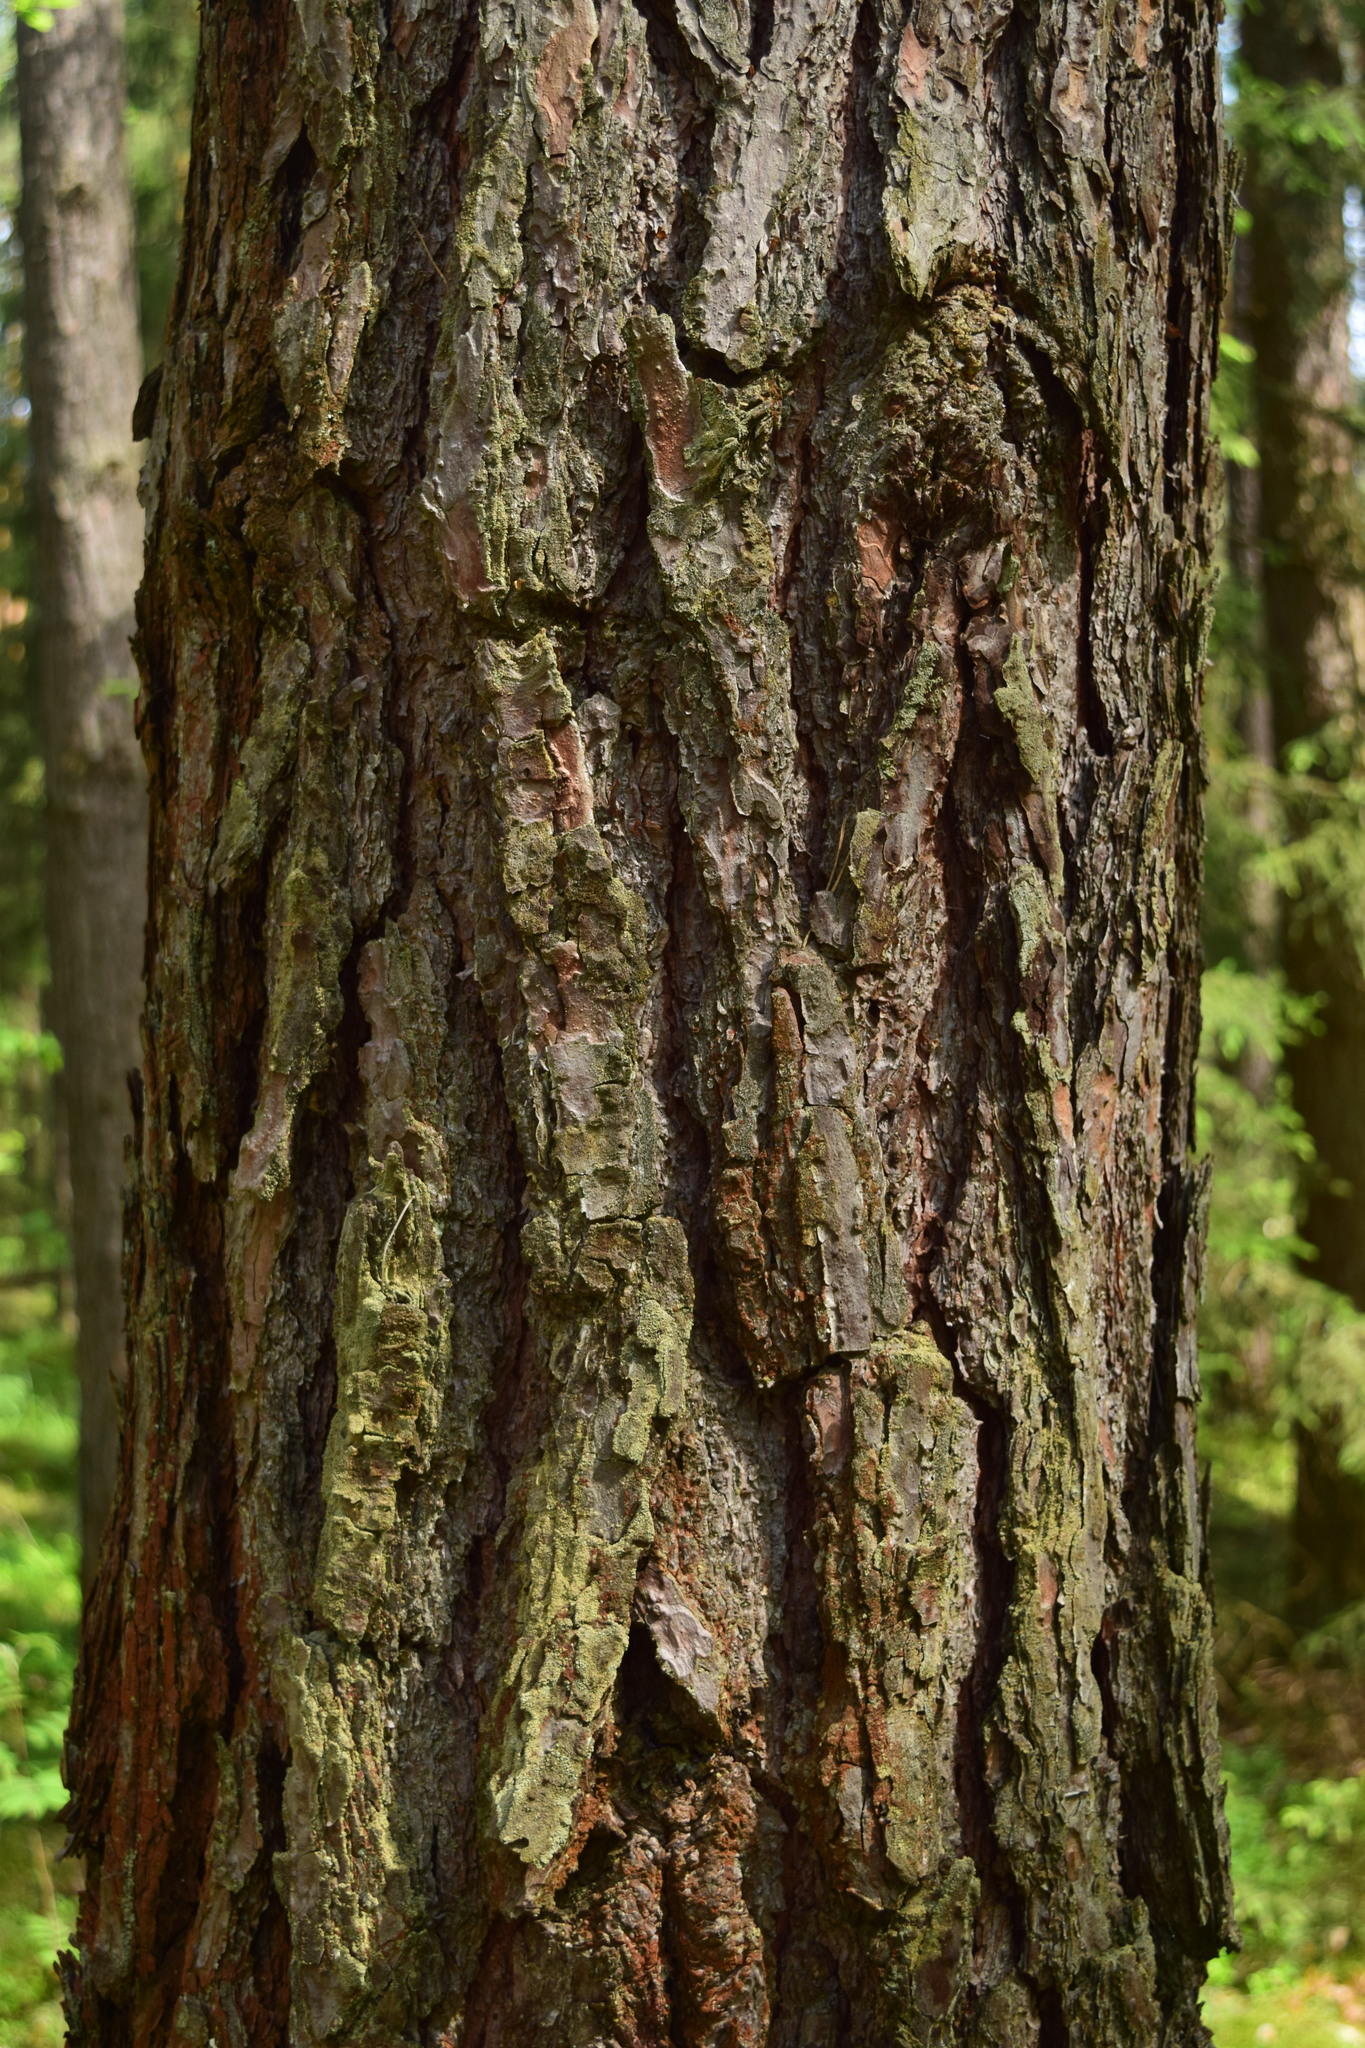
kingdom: Plantae
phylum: Tracheophyta
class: Pinopsida
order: Pinales
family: Pinaceae
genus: Pinus
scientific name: Pinus sylvestris
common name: Scots pine
